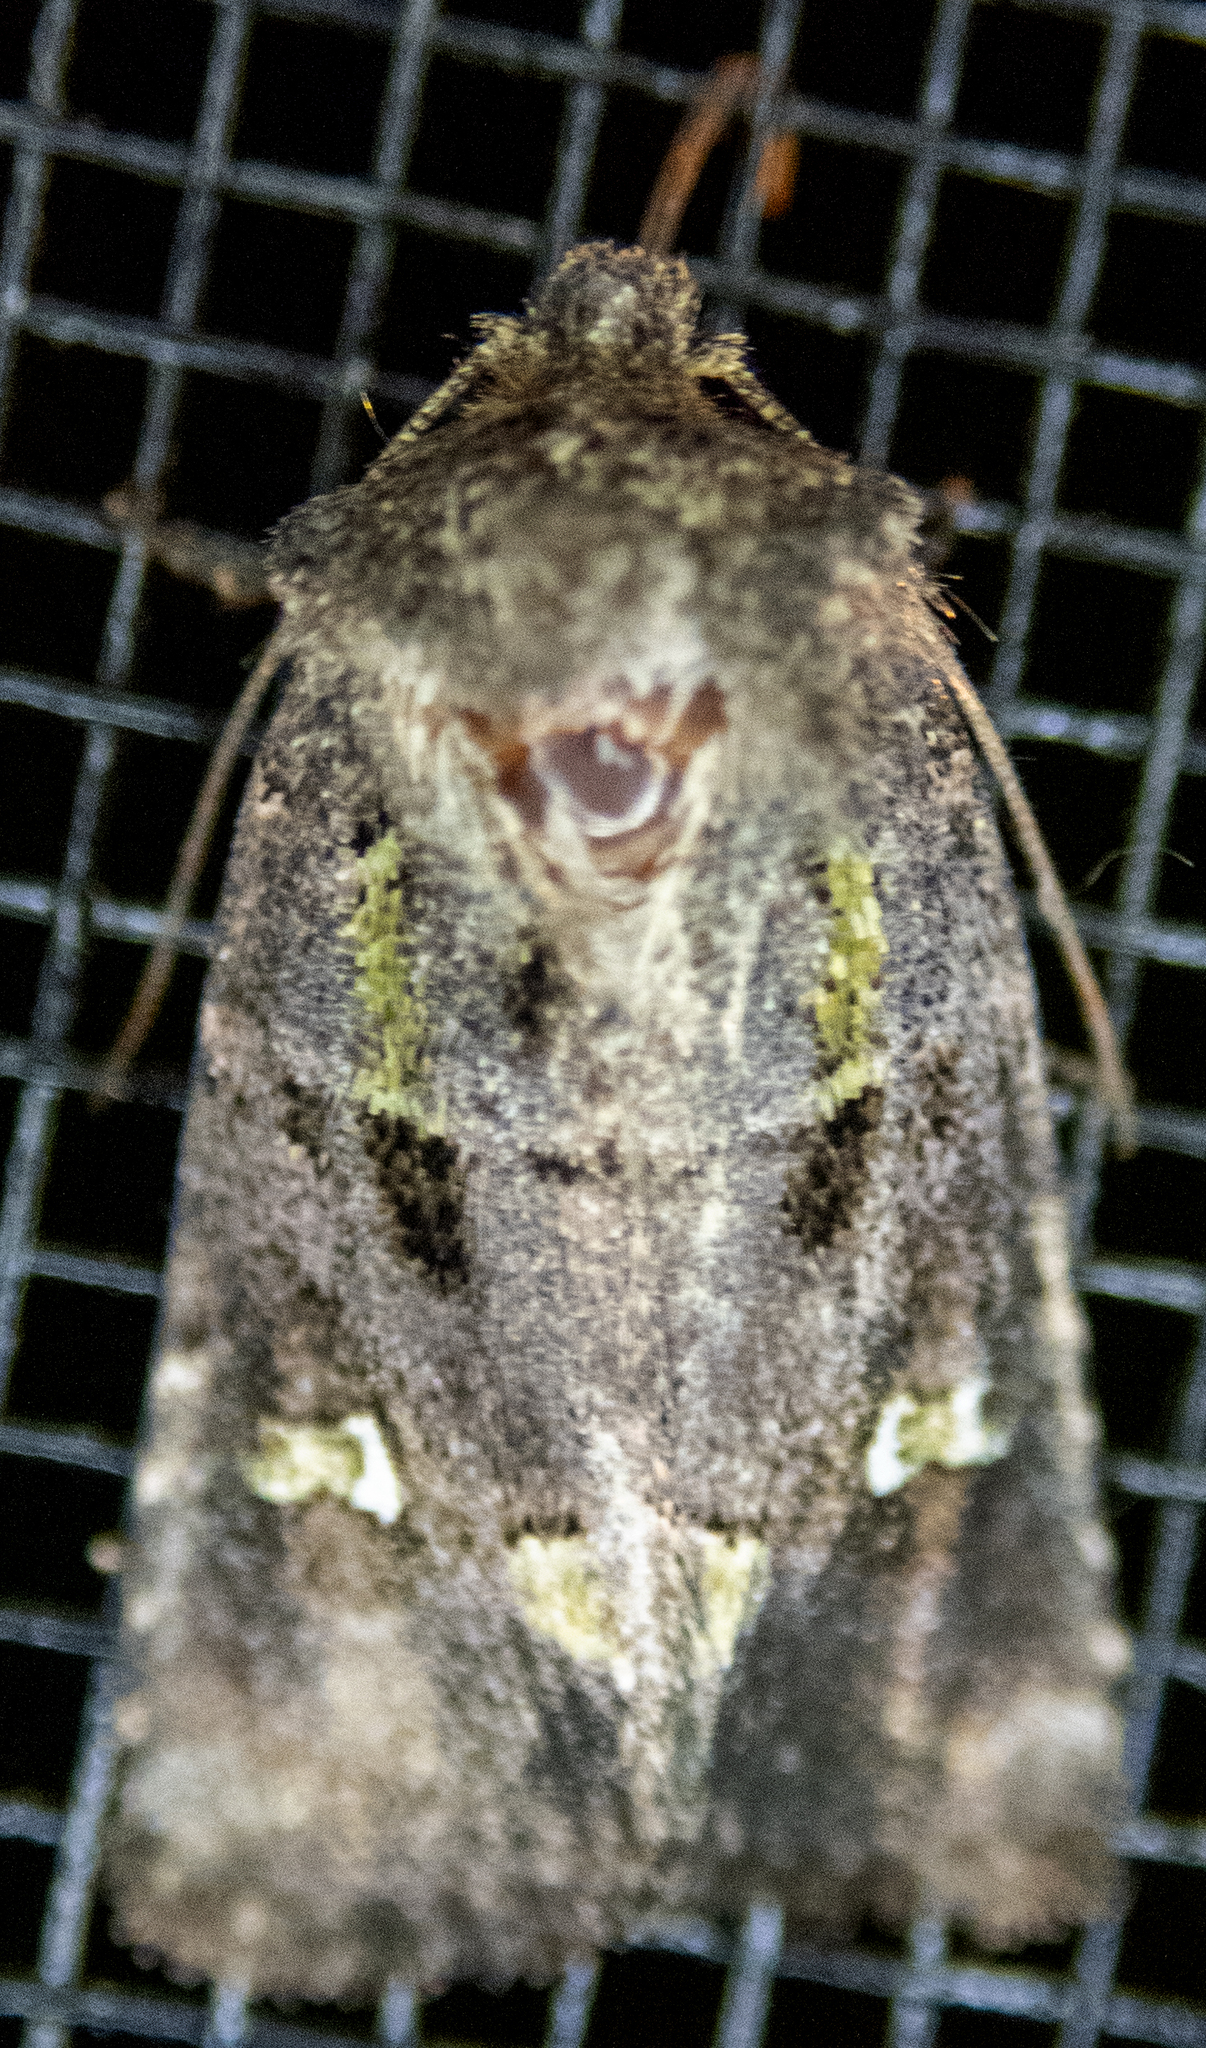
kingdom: Animalia
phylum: Arthropoda
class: Insecta
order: Lepidoptera
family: Noctuidae
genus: Lacinipolia
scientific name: Lacinipolia renigera
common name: Kidney-spotted minor
